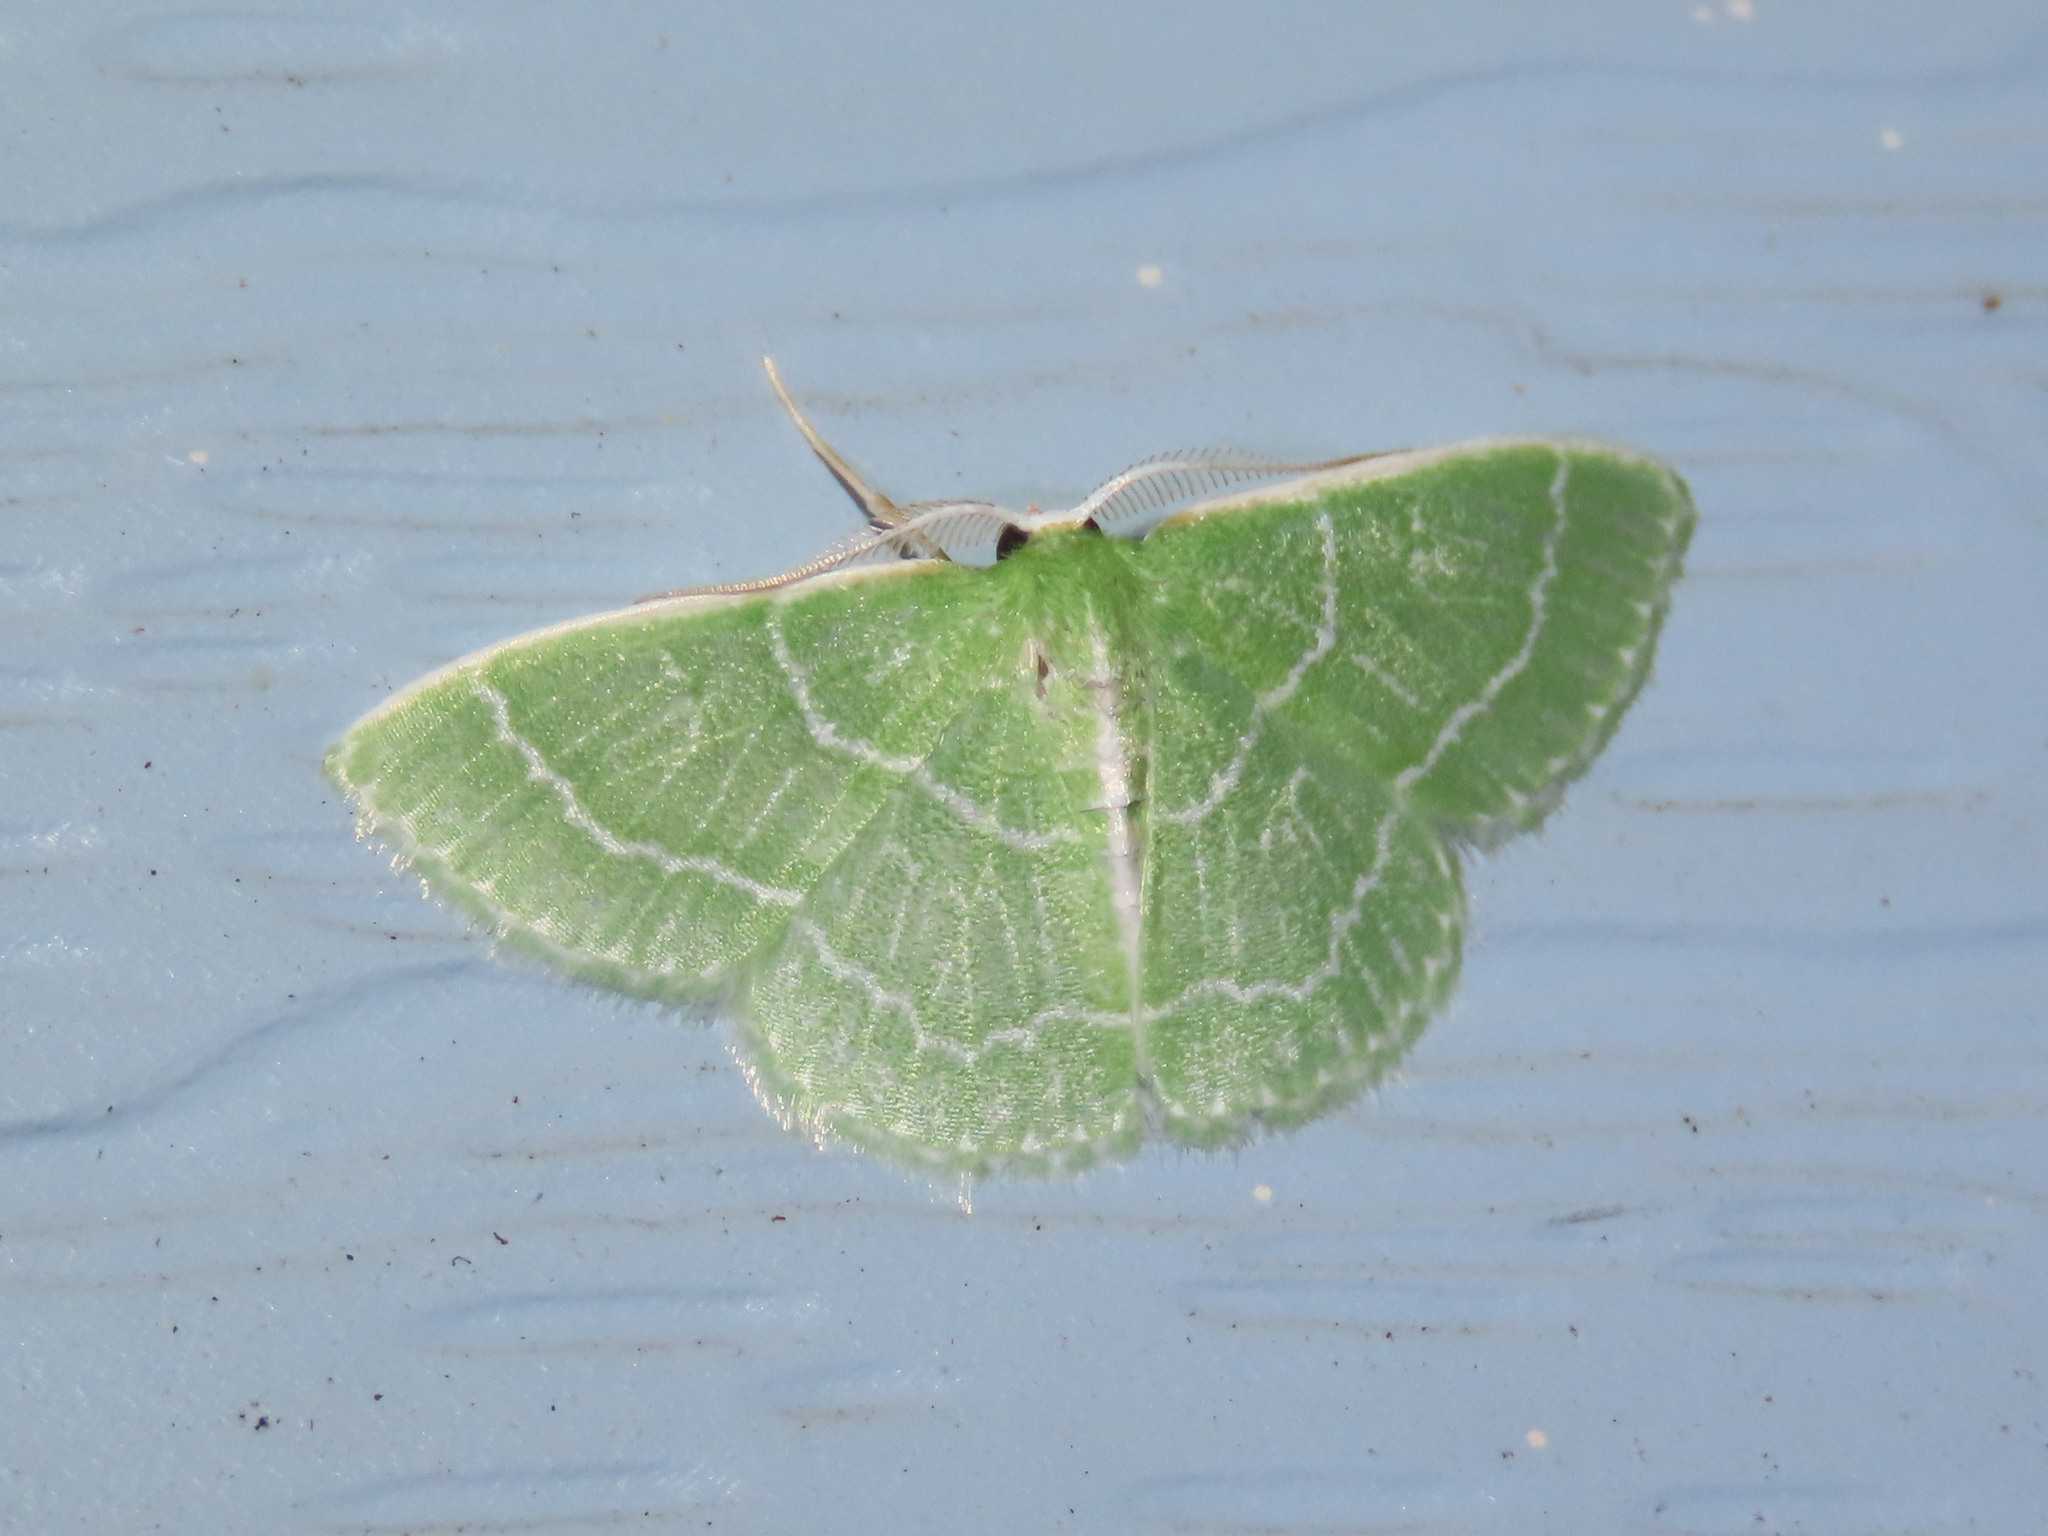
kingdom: Animalia
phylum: Arthropoda
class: Insecta
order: Lepidoptera
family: Geometridae
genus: Synchlora
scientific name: Synchlora aerata
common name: Wavy-lined emerald
